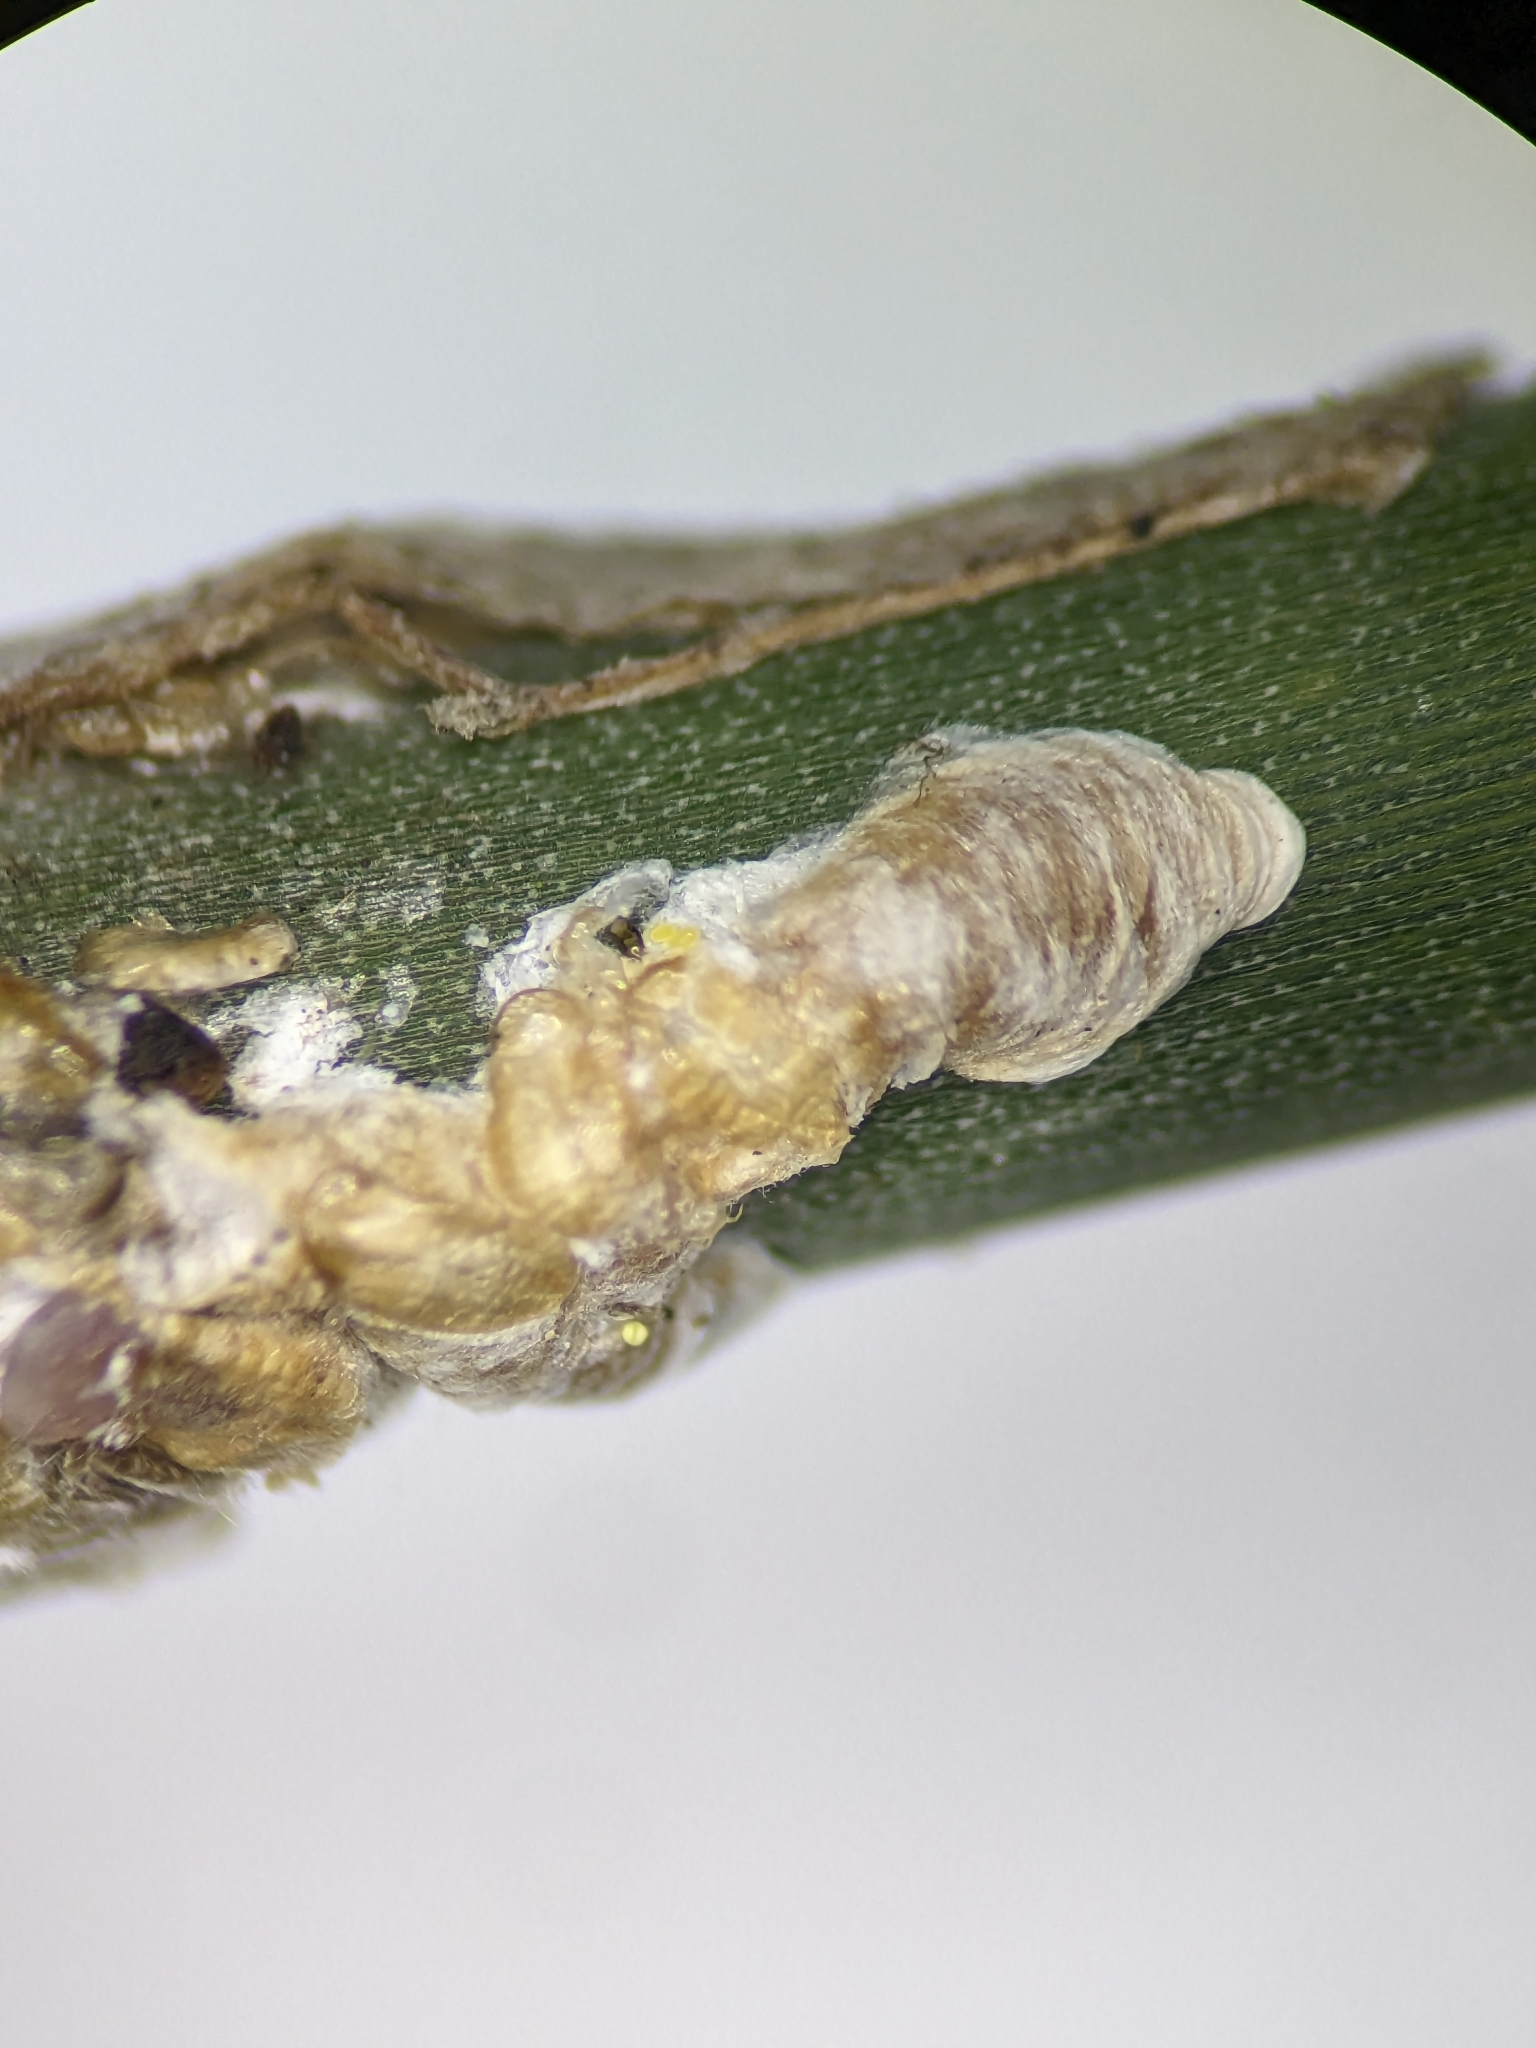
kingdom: Animalia
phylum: Arthropoda
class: Insecta
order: Hemiptera
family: Diaspididae
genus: Poliaspoides
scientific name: Poliaspoides leptocarpi
